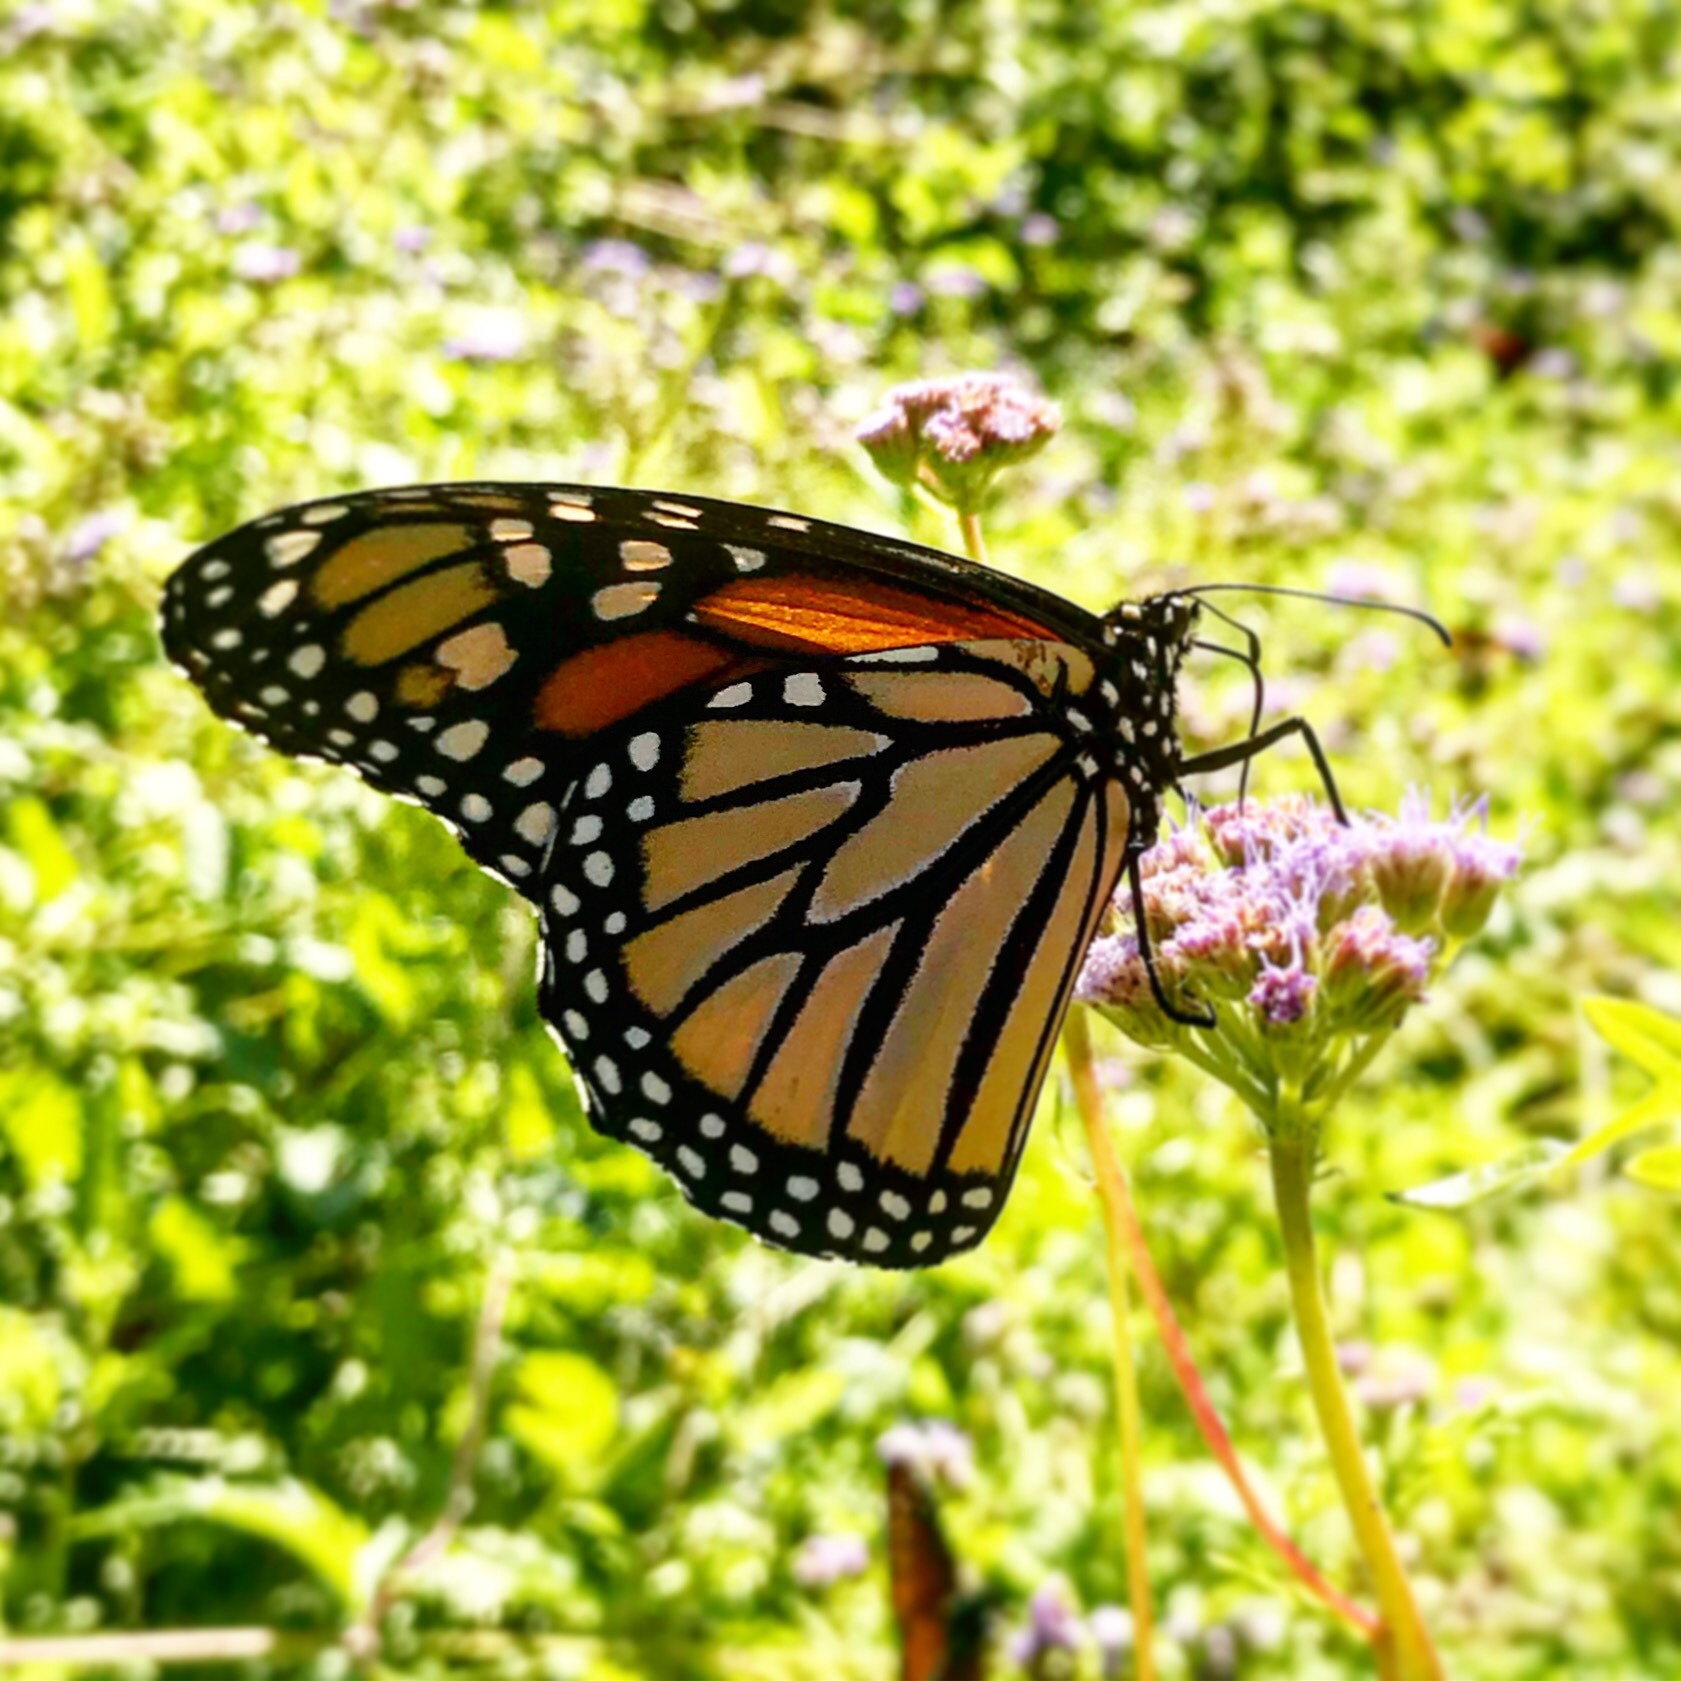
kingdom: Animalia
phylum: Arthropoda
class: Insecta
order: Lepidoptera
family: Nymphalidae
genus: Danaus
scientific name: Danaus plexippus
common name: Monarch
